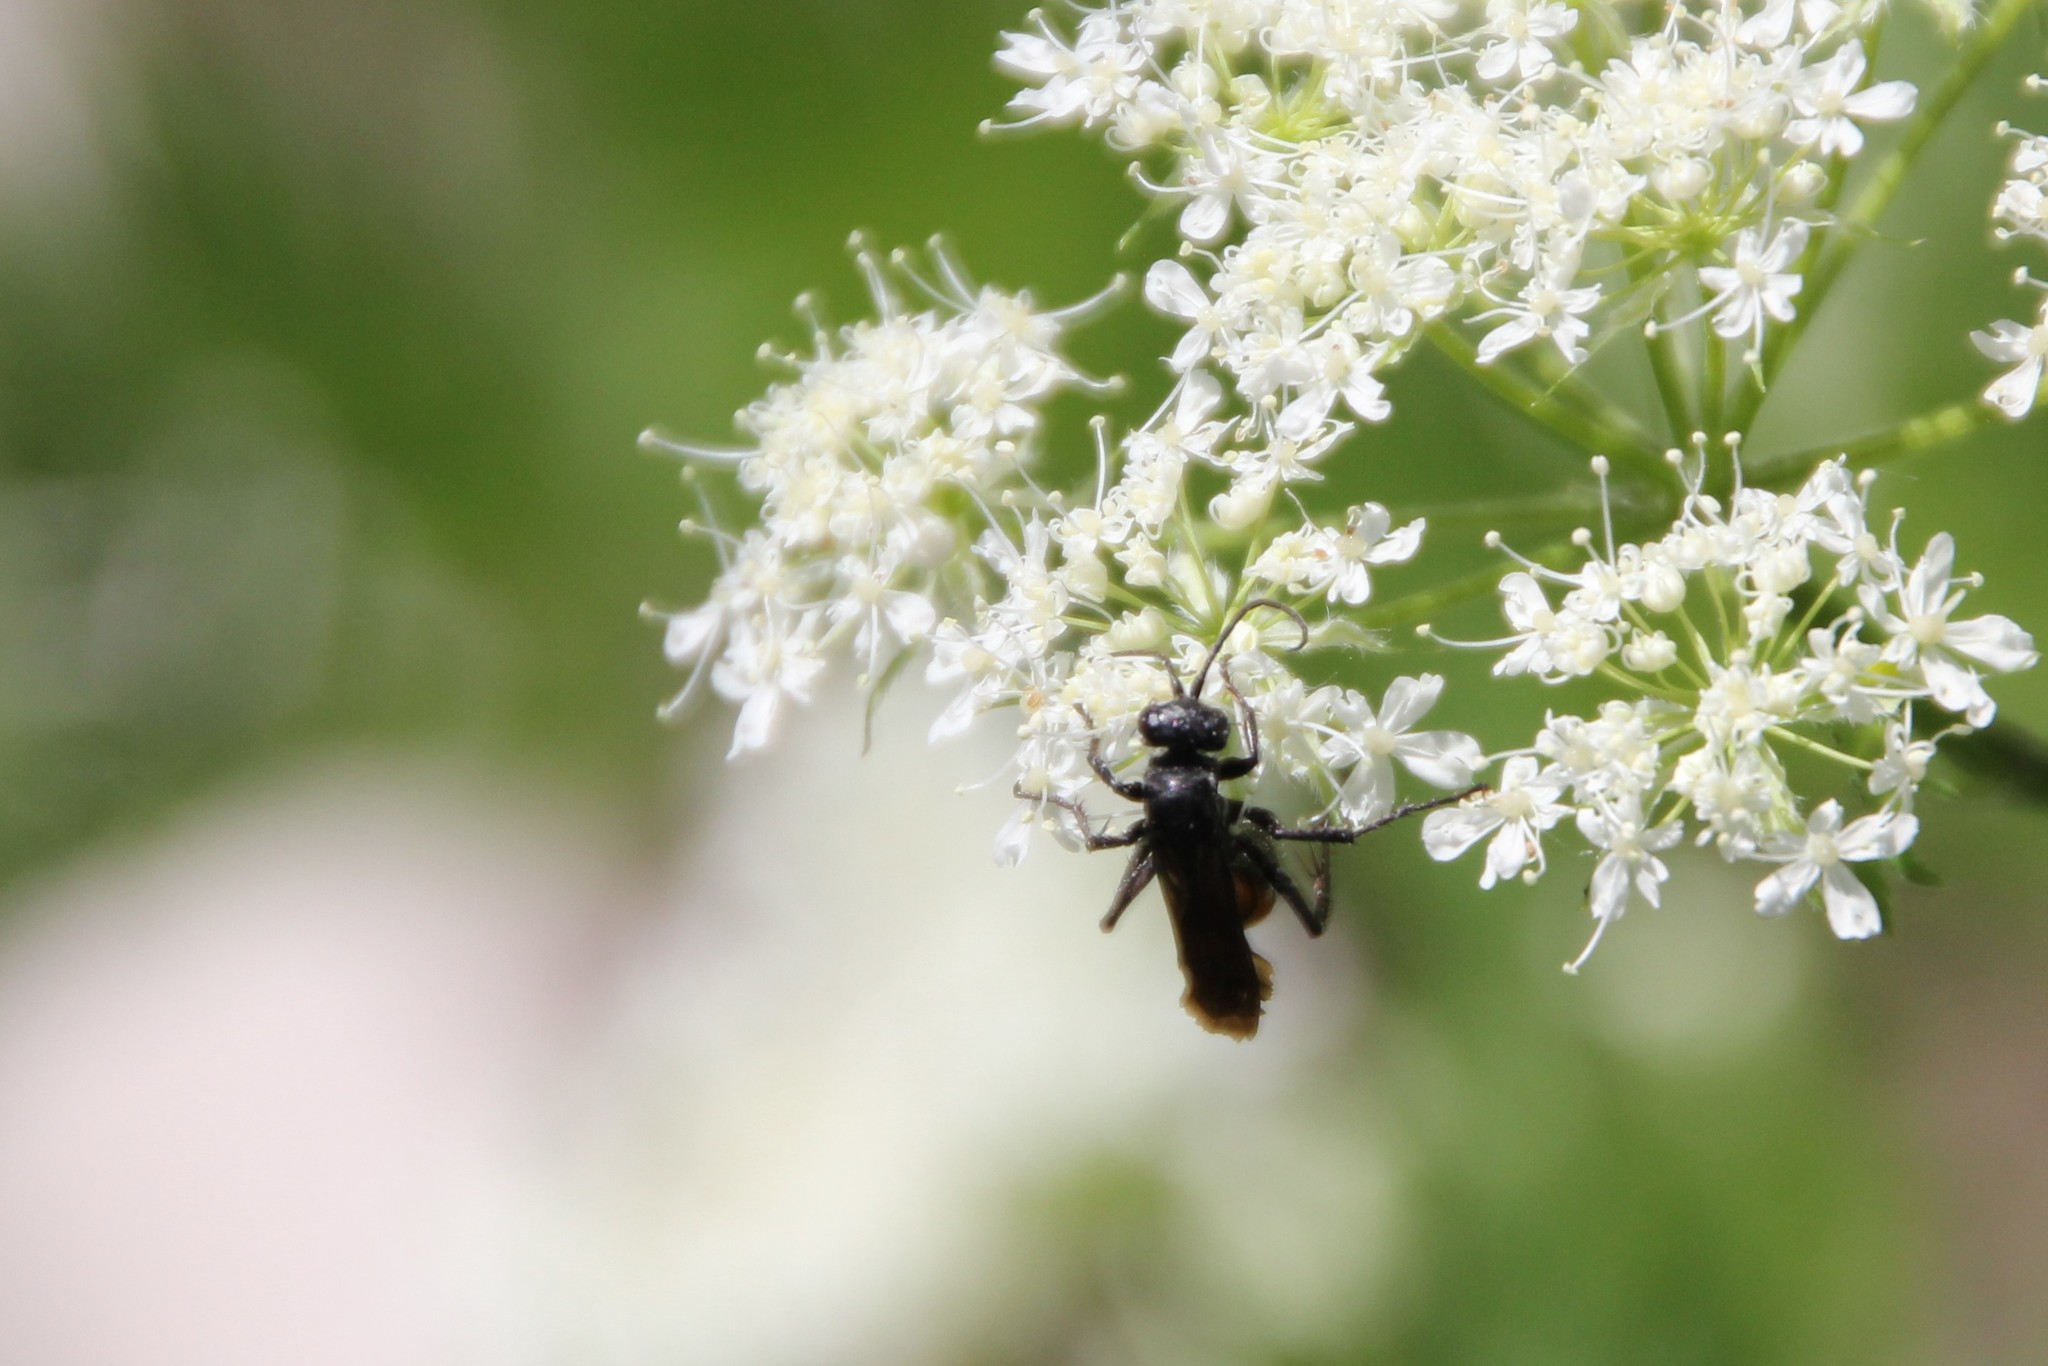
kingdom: Animalia
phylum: Arthropoda
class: Insecta
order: Hymenoptera
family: Pompilidae
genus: Anoplius
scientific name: Anoplius viaticus
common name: Black banded spider wasp
